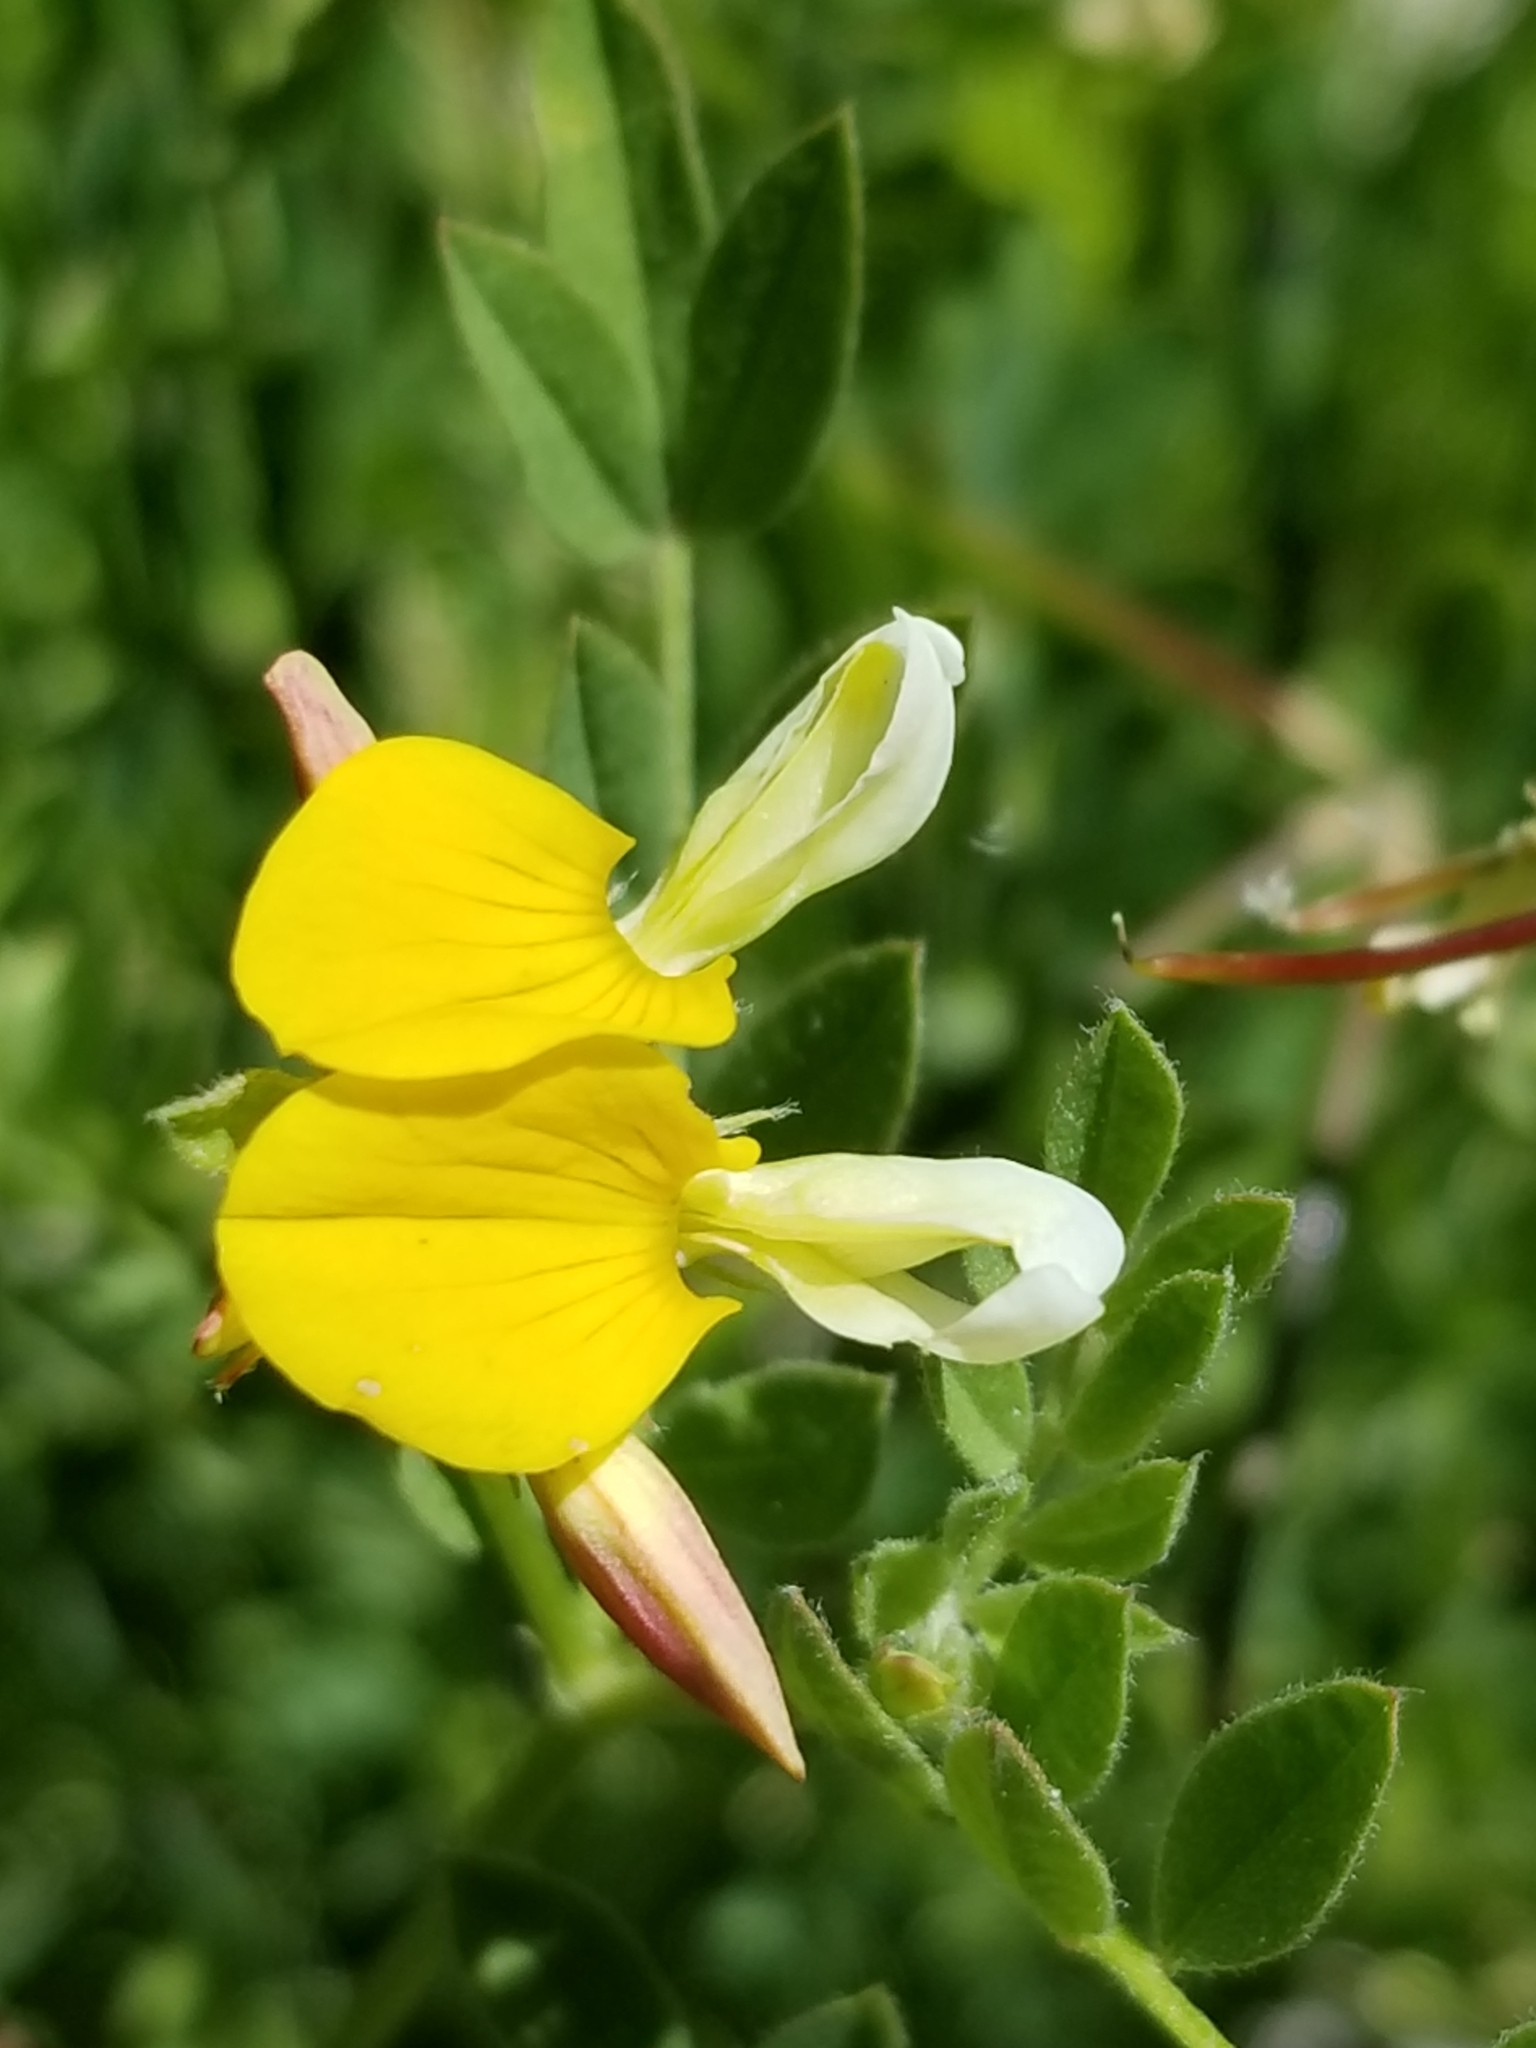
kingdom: Plantae
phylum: Tracheophyta
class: Magnoliopsida
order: Fabales
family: Fabaceae
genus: Hosackia
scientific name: Hosackia oblongifolia
